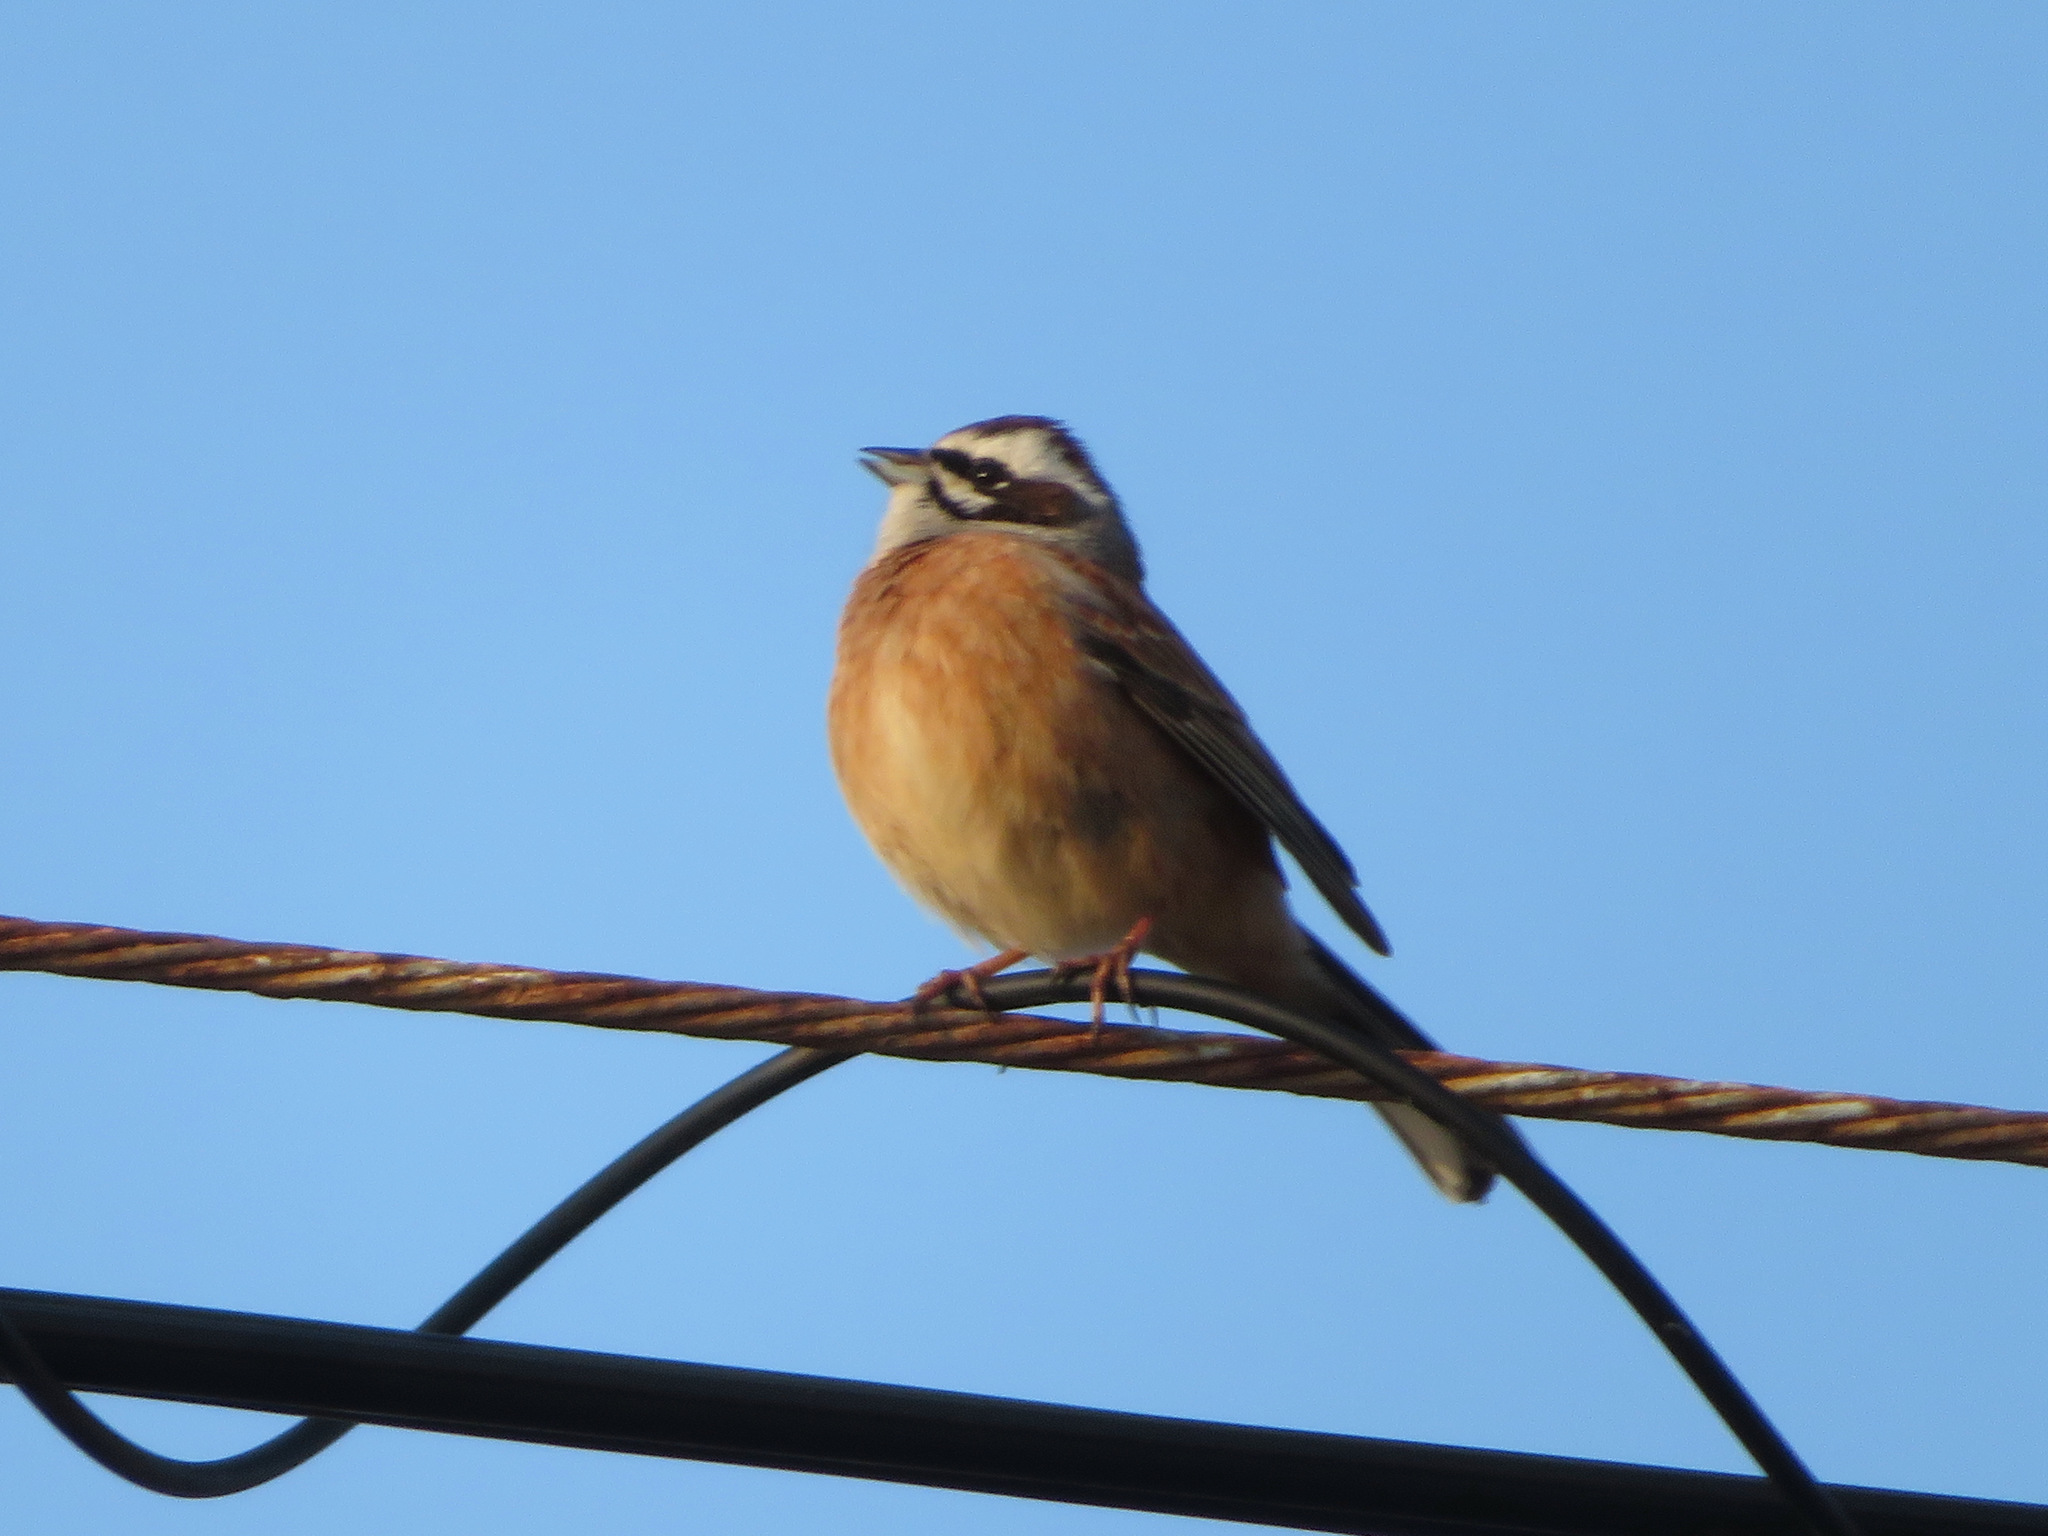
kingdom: Animalia
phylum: Chordata
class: Aves
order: Passeriformes
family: Emberizidae
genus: Emberiza
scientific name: Emberiza cioides
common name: Meadow bunting
